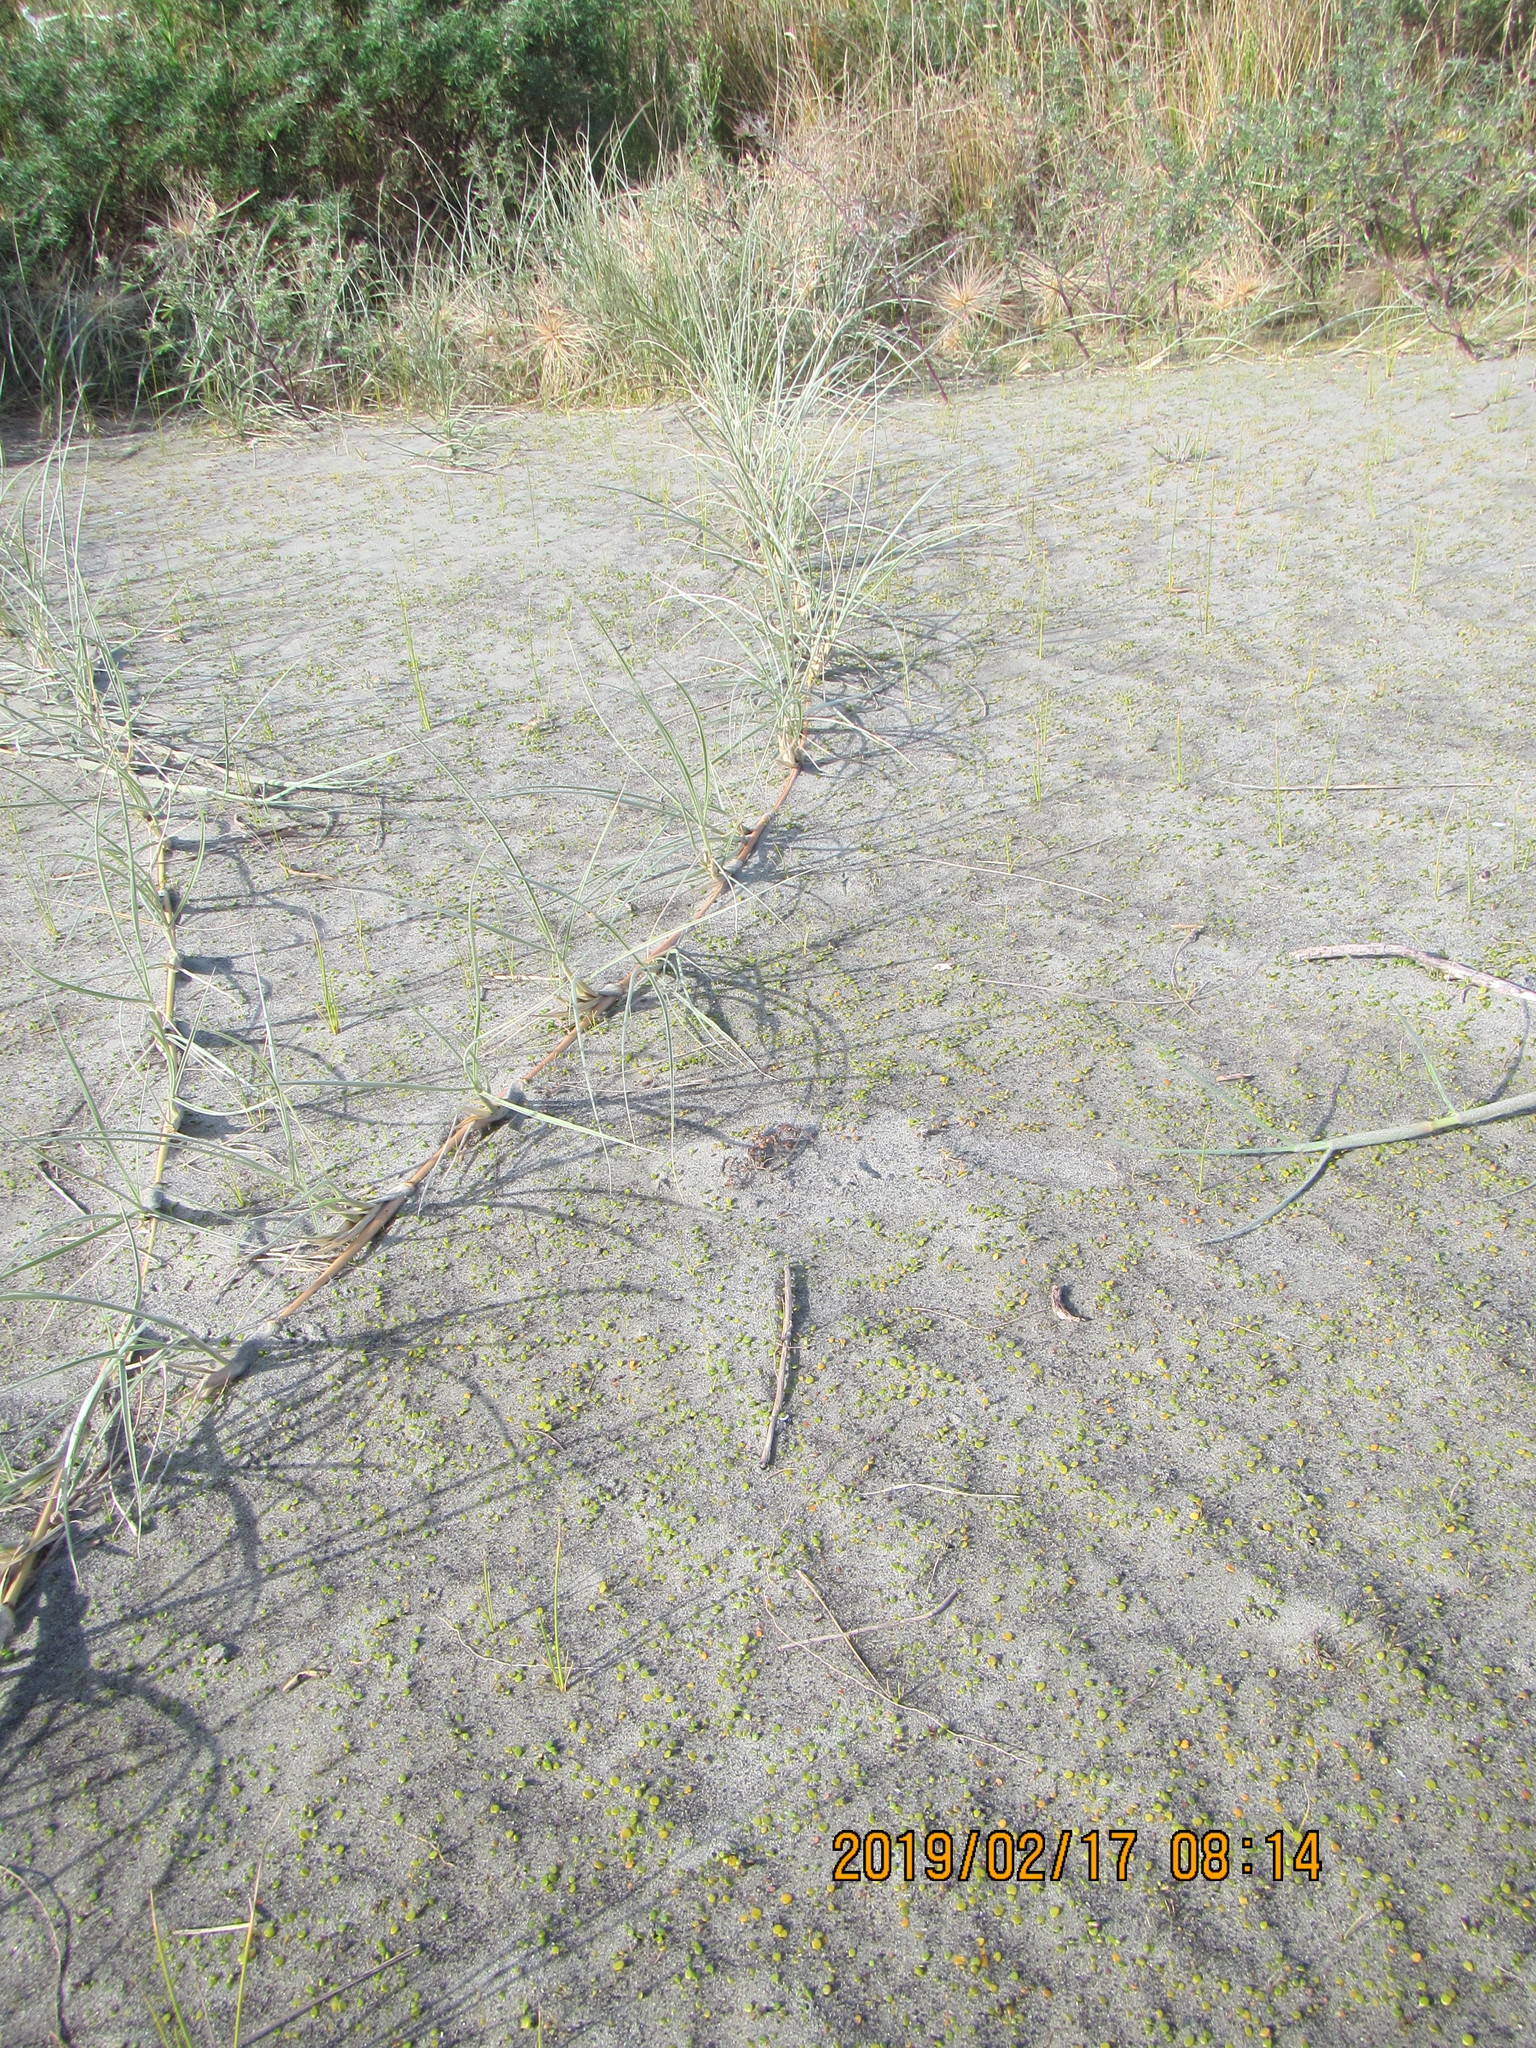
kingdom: Plantae
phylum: Tracheophyta
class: Liliopsida
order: Poales
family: Poaceae
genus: Spinifex
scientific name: Spinifex sericeus
